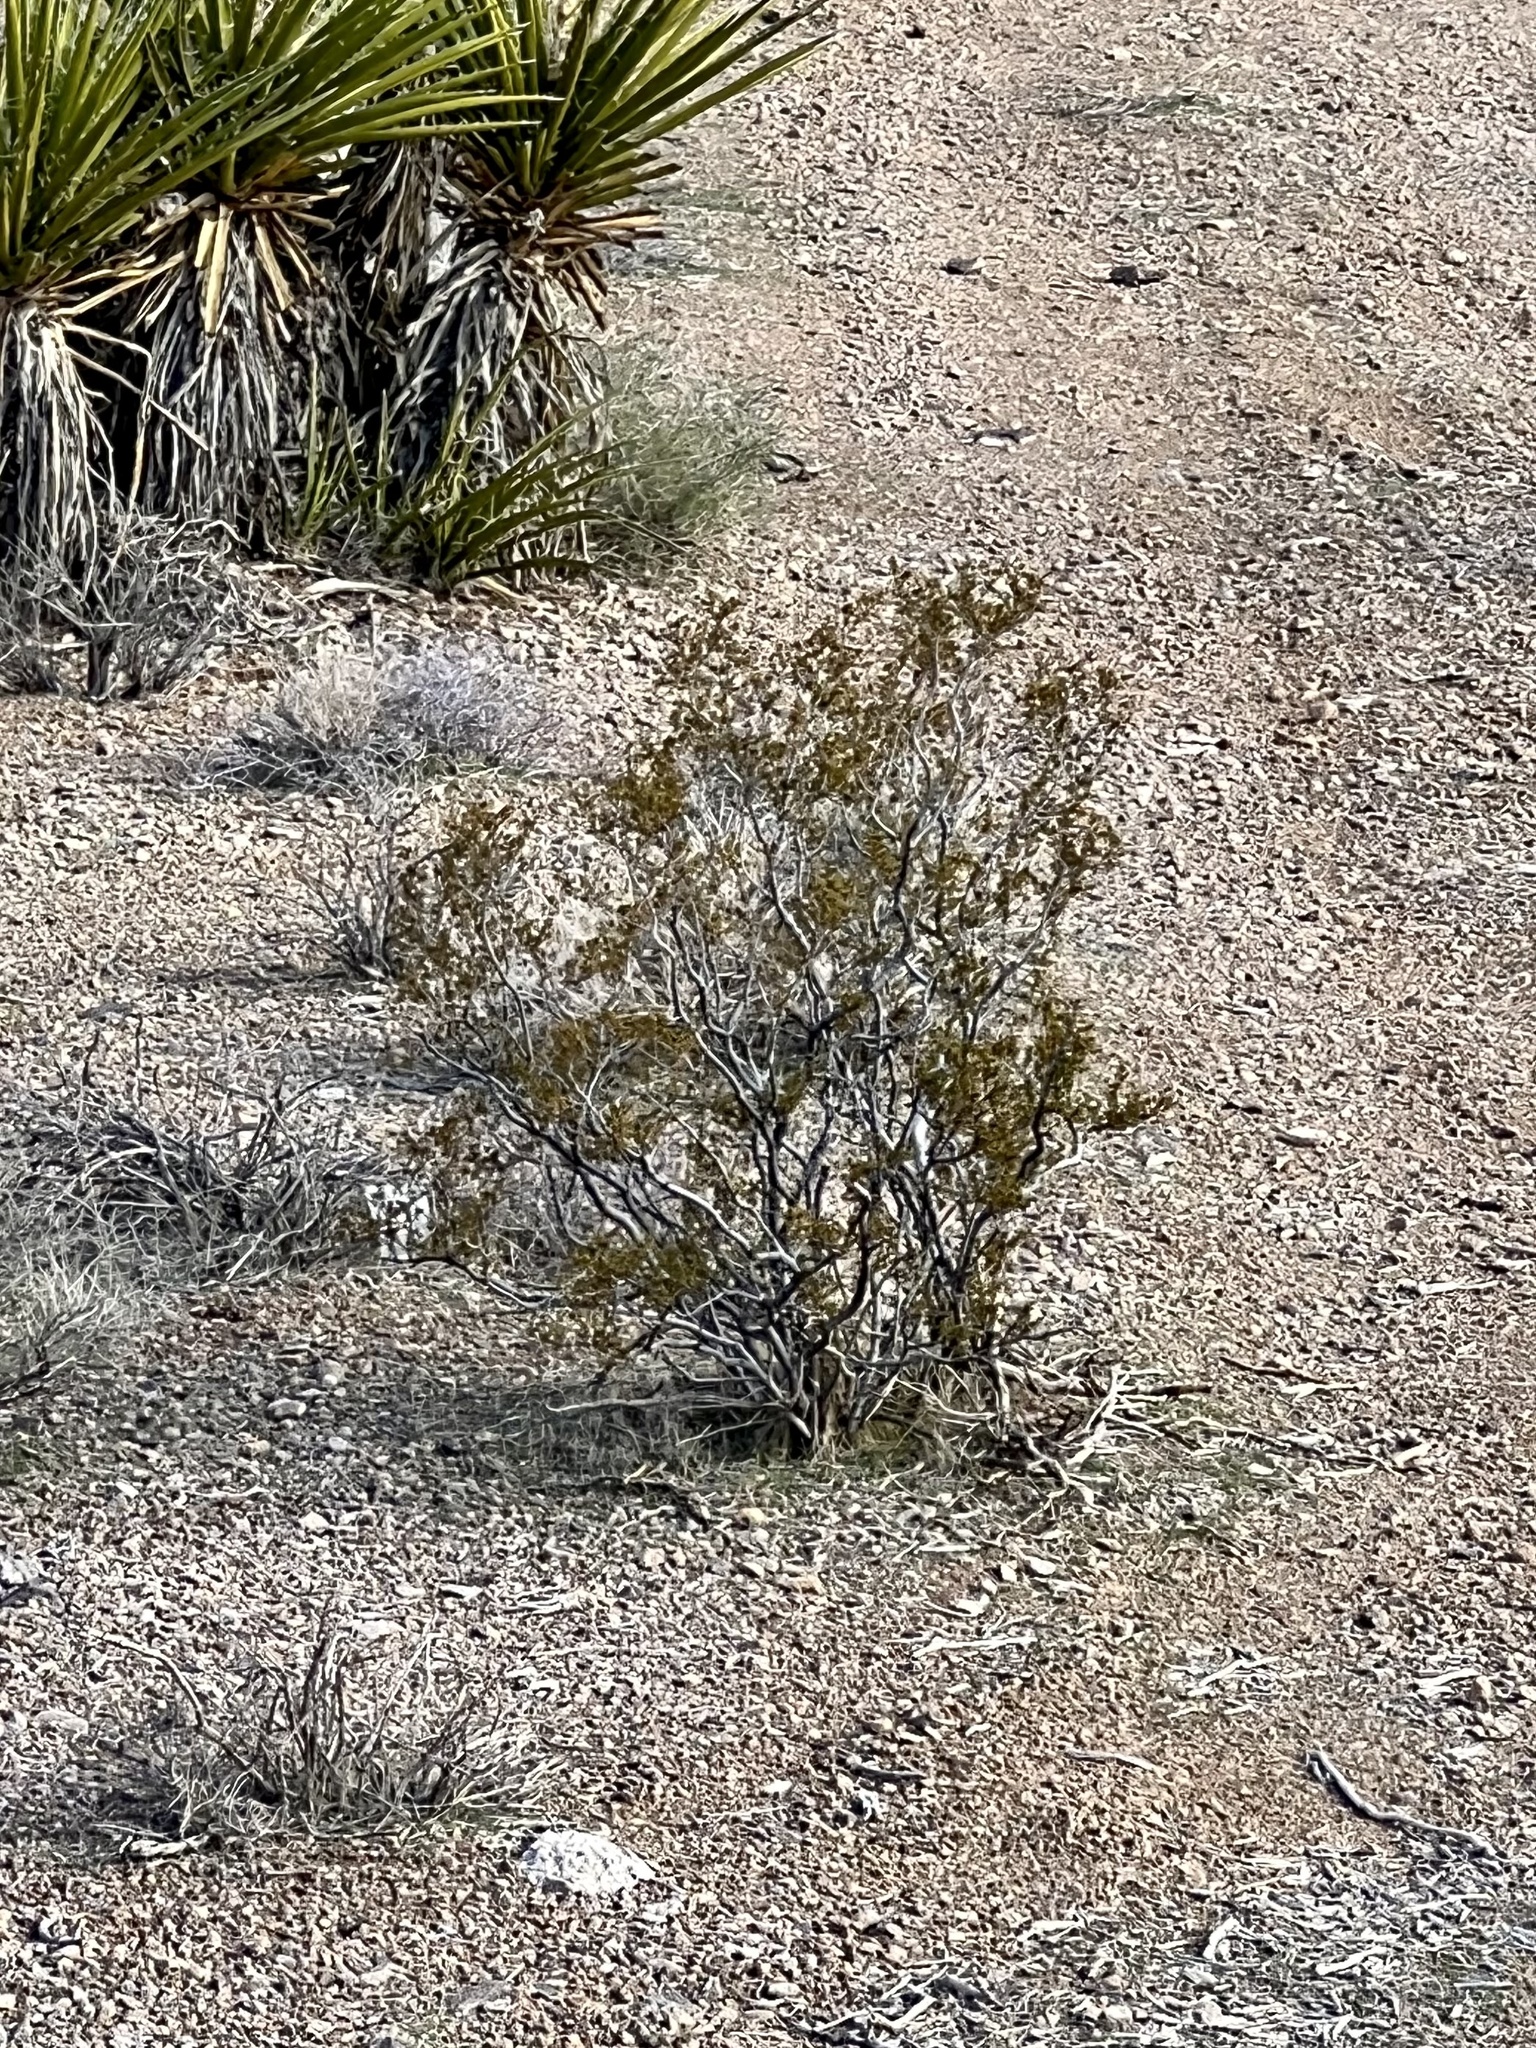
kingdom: Plantae
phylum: Tracheophyta
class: Magnoliopsida
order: Zygophyllales
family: Zygophyllaceae
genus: Larrea
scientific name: Larrea tridentata
